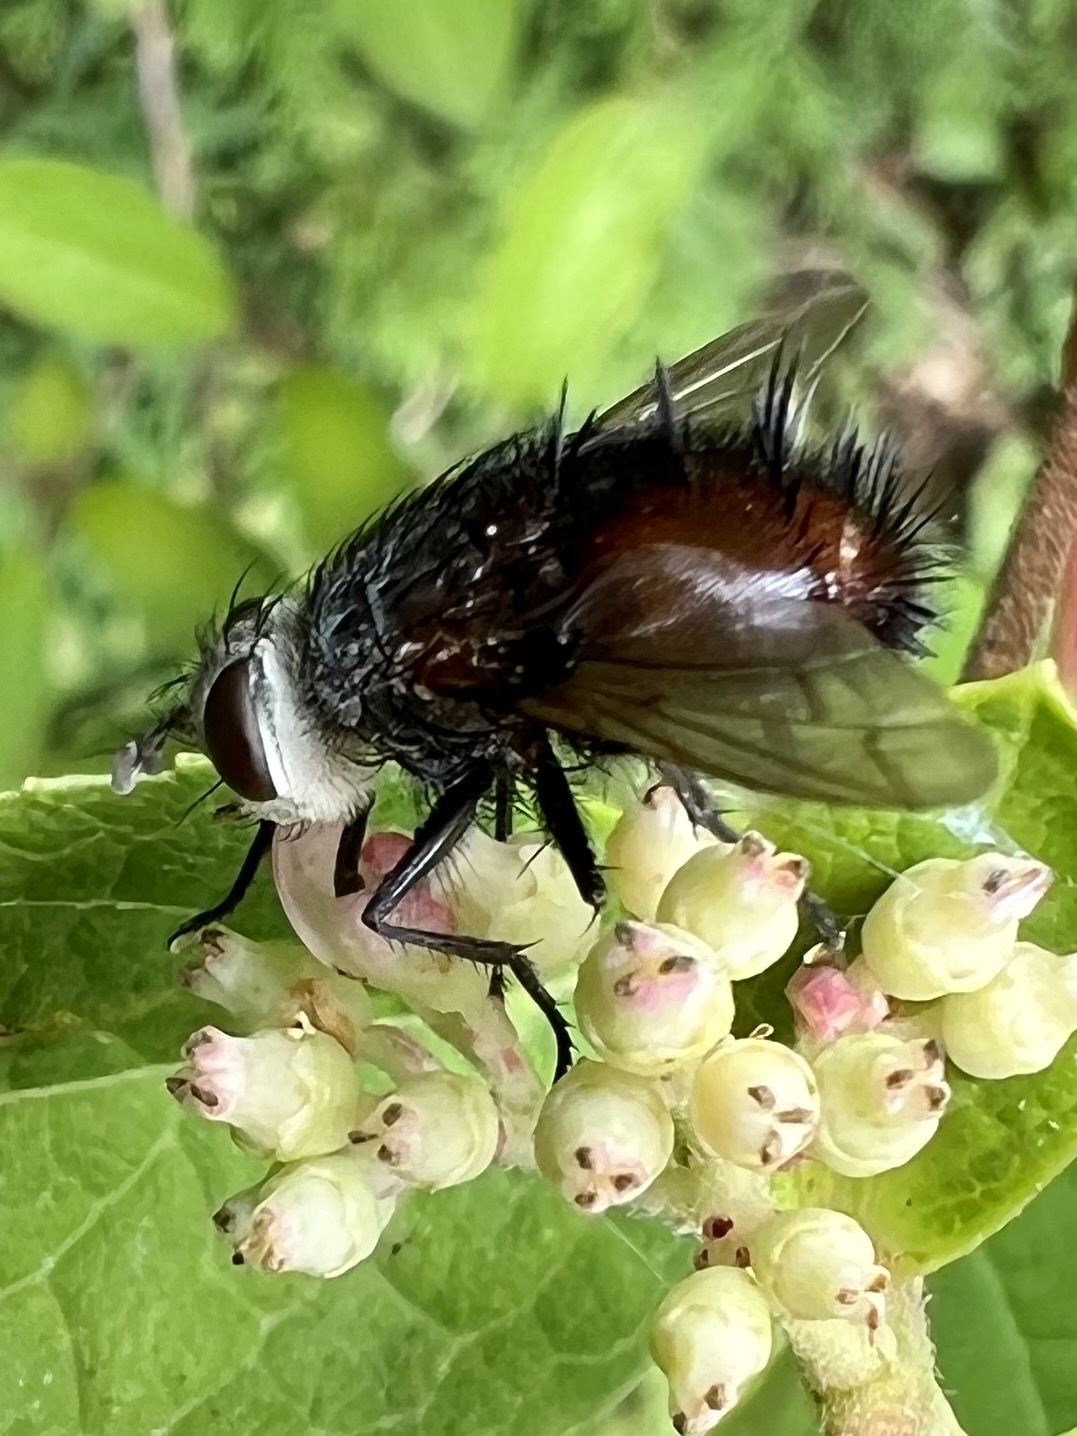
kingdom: Animalia
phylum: Arthropoda
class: Insecta
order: Diptera
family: Tachinidae
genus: Juriniopsis
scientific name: Juriniopsis adusta
